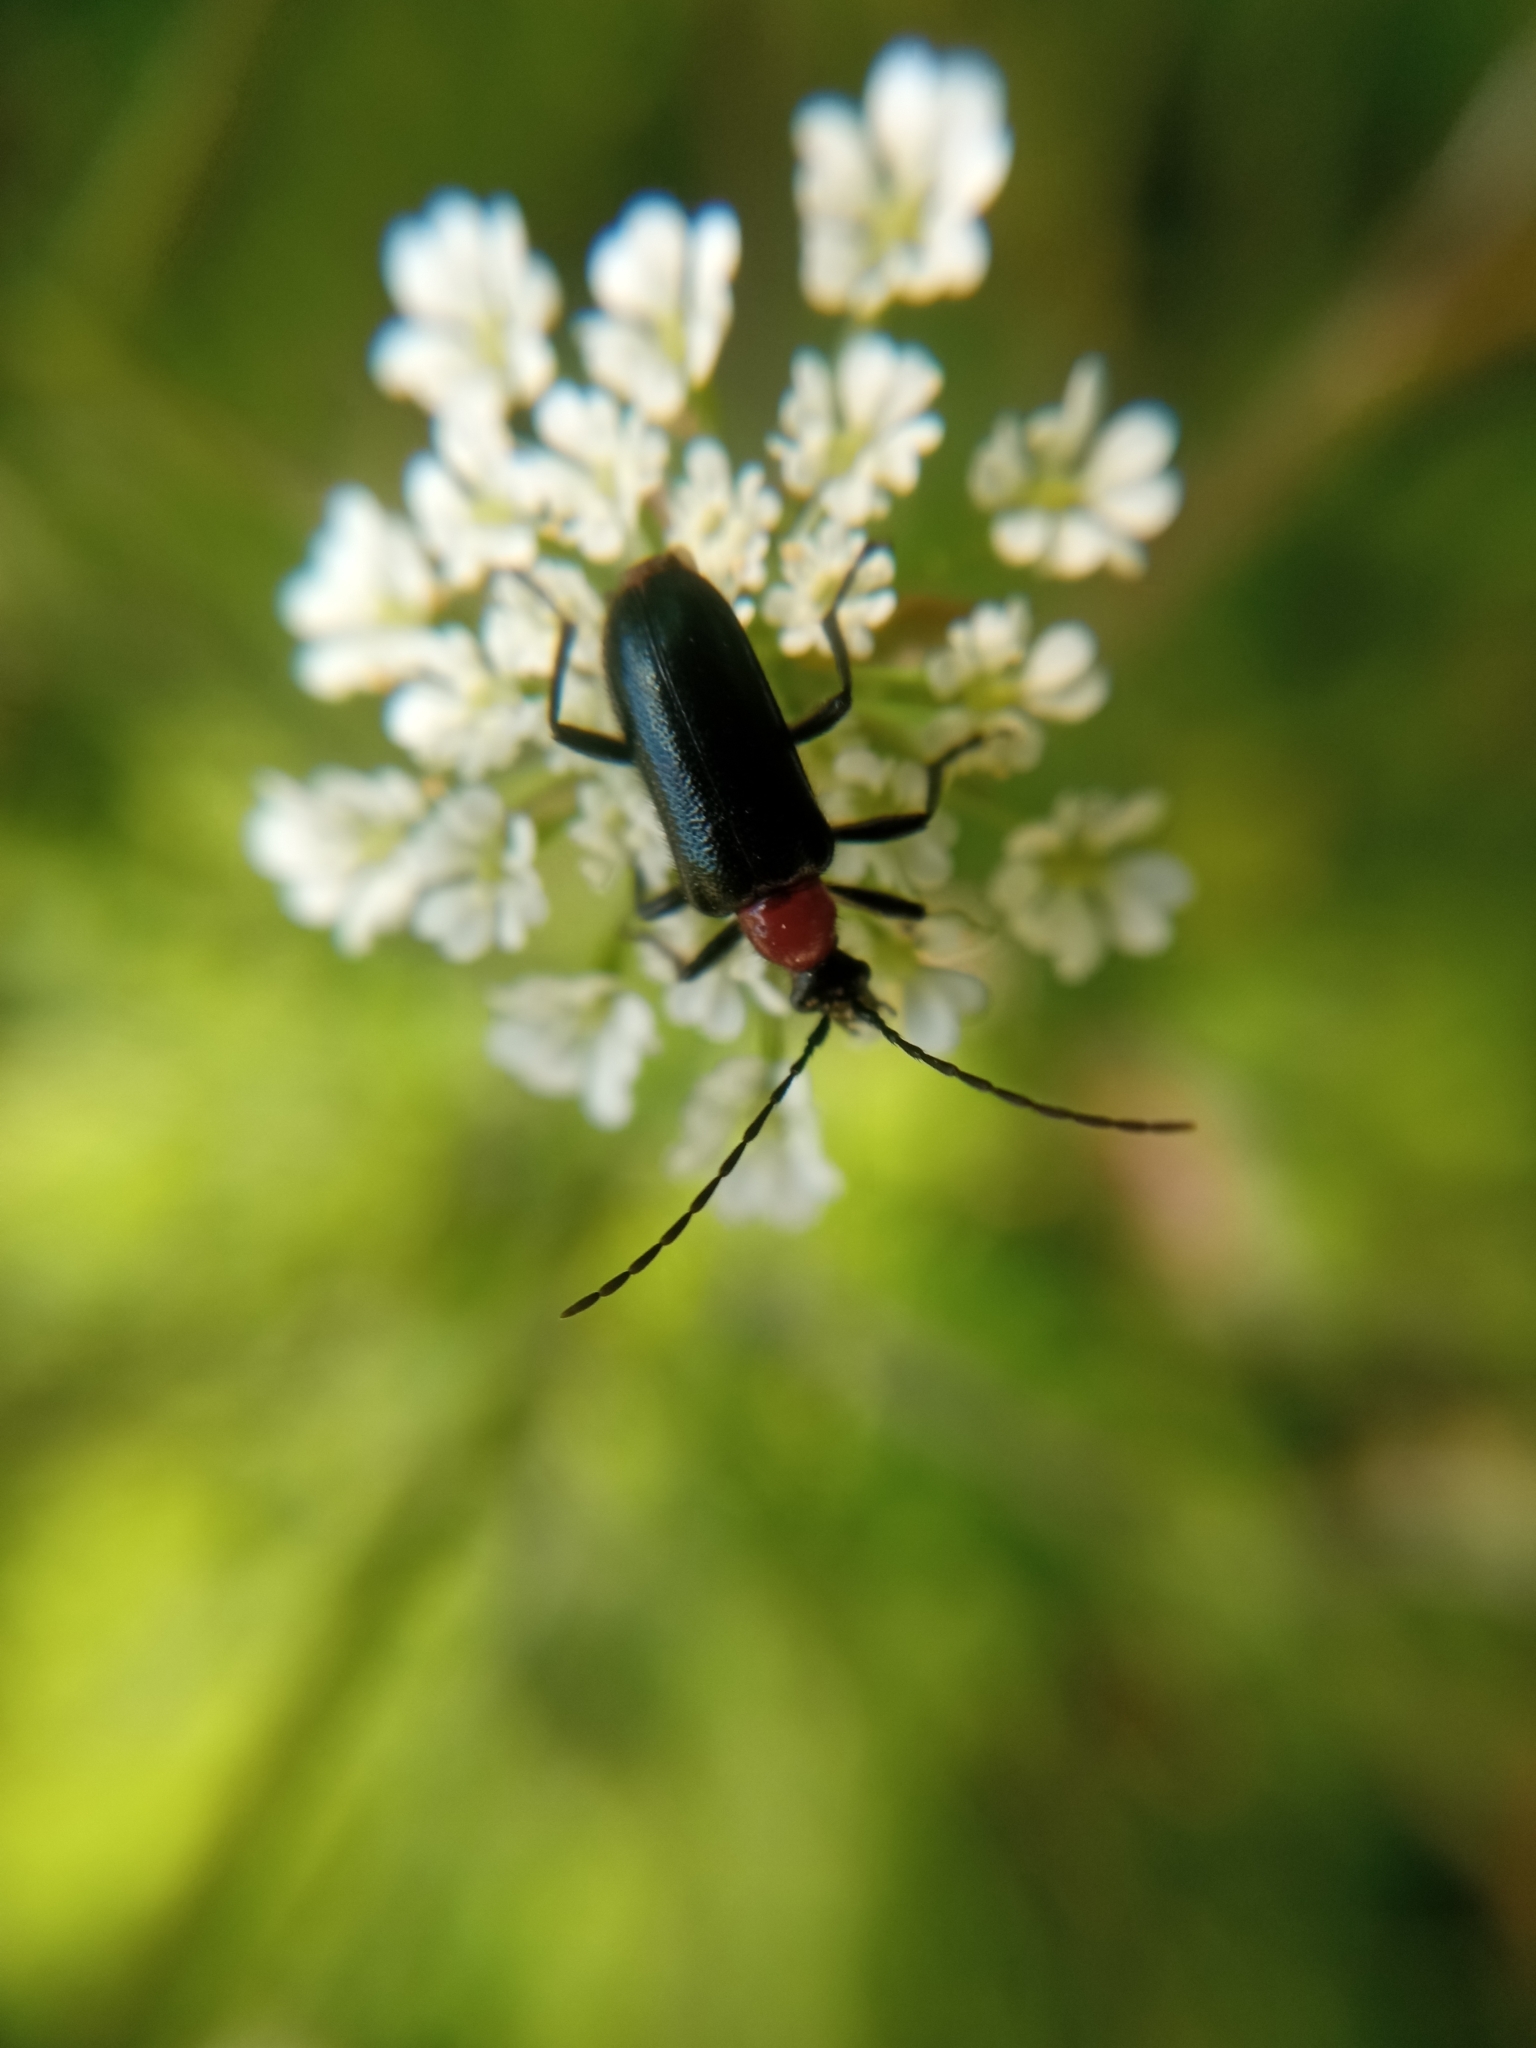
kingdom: Animalia
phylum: Arthropoda
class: Insecta
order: Coleoptera
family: Cerambycidae
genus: Dinoptera
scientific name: Dinoptera collaris
